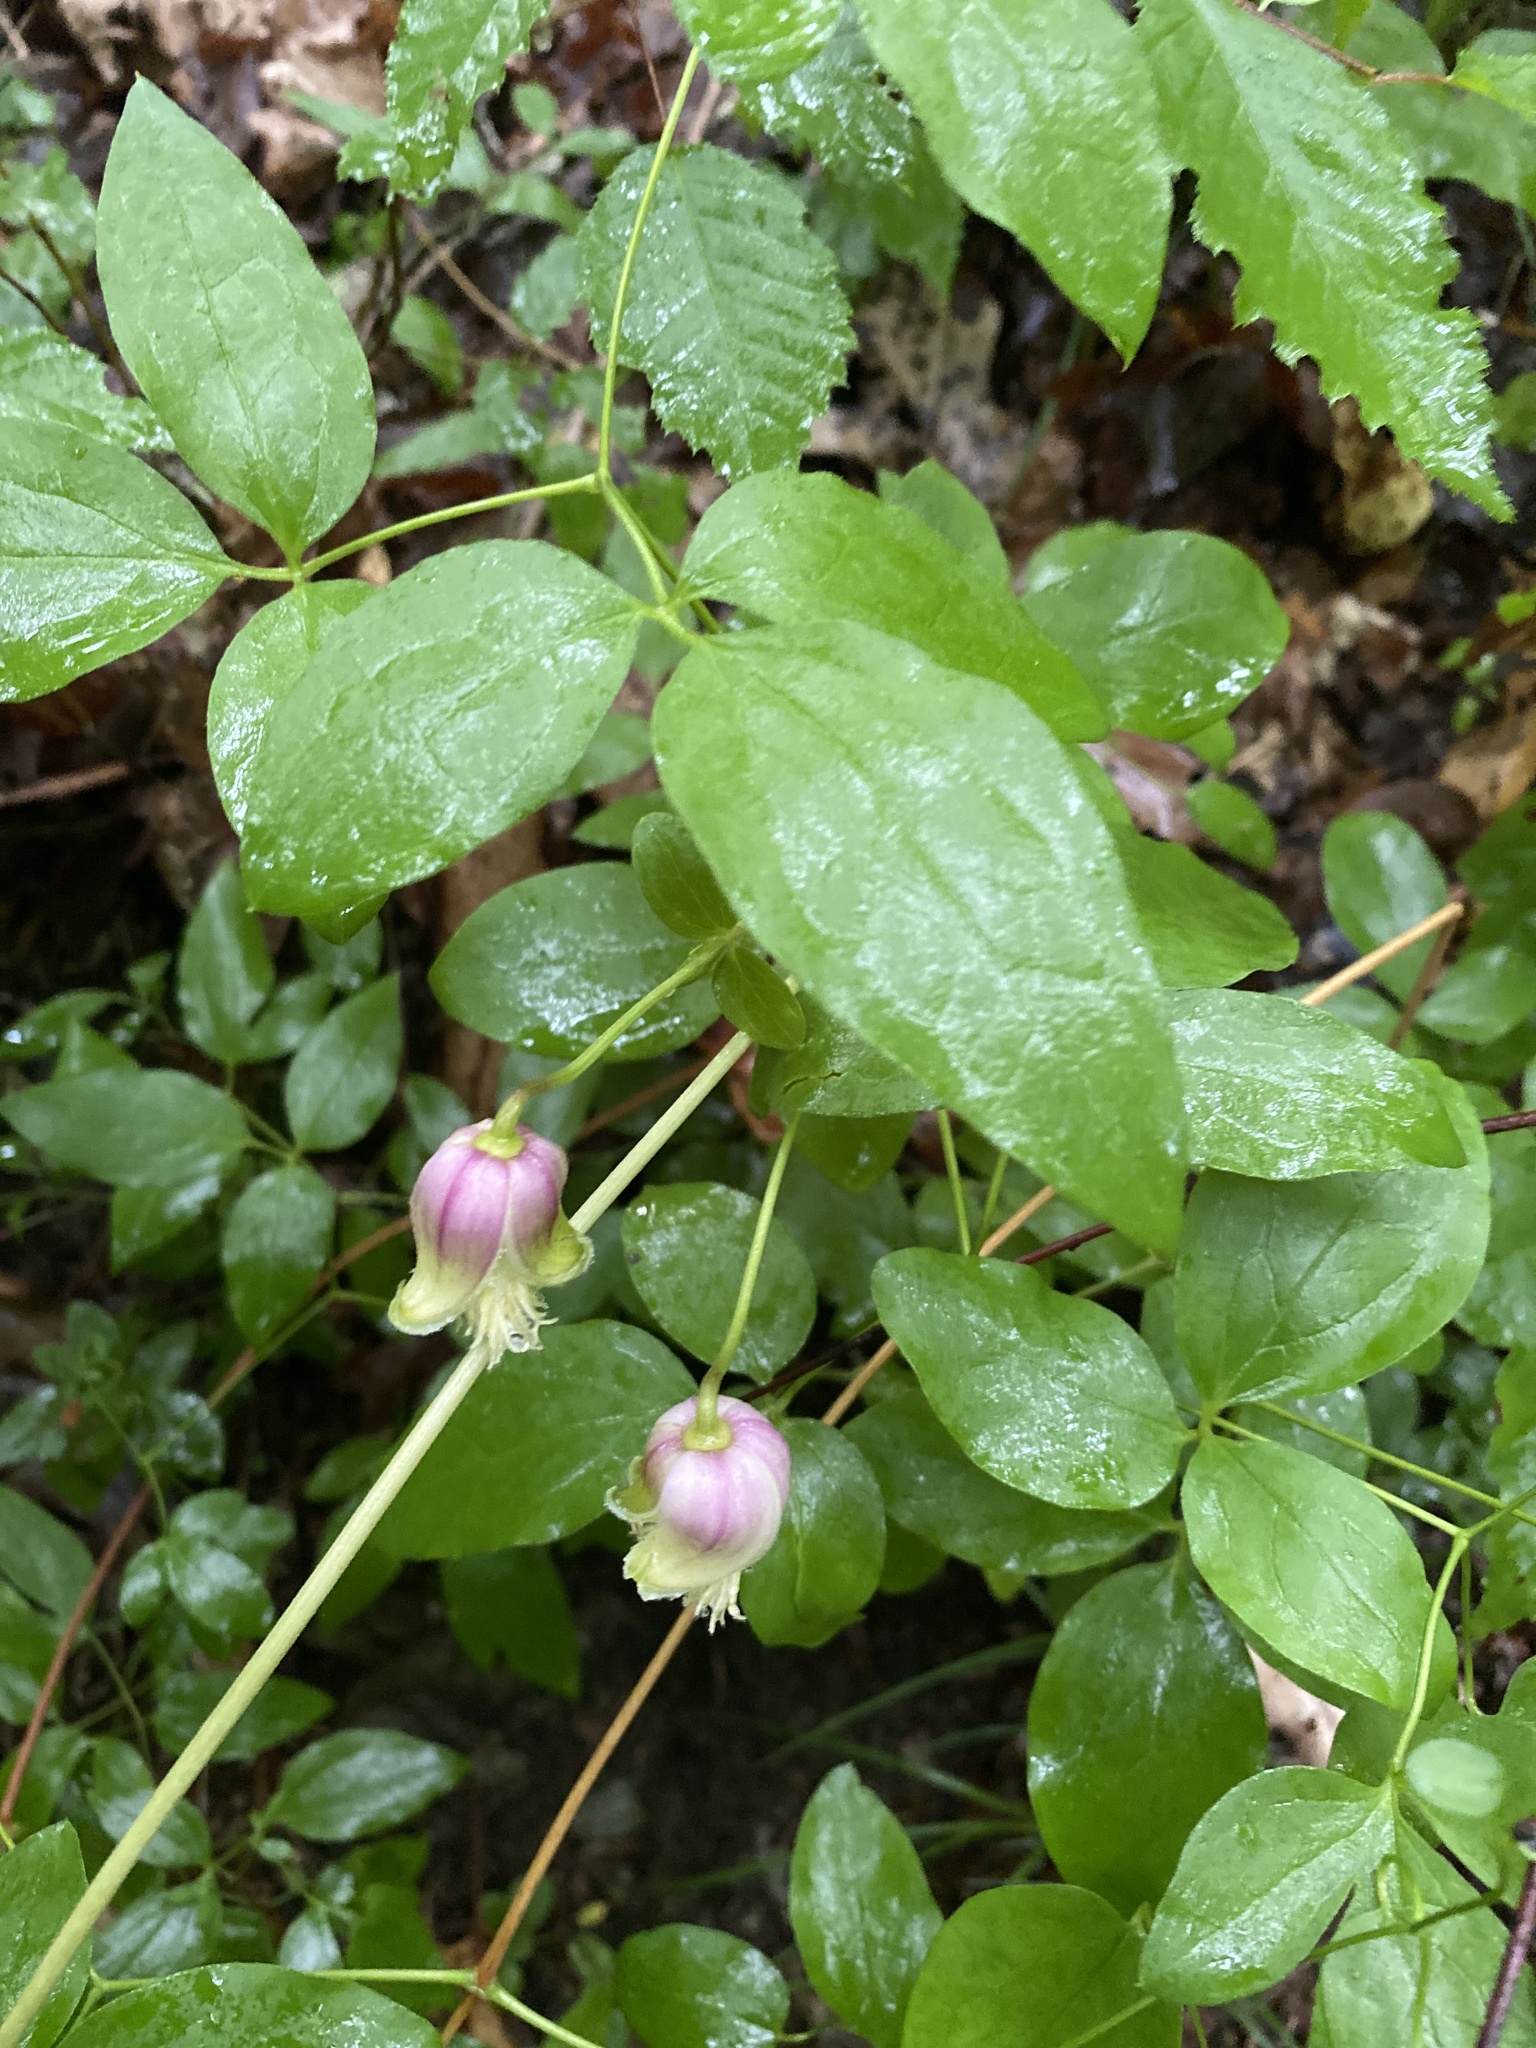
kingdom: Plantae
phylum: Tracheophyta
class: Magnoliopsida
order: Ranunculales
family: Ranunculaceae
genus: Clematis
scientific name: Clematis viorna
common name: Leather-flower
